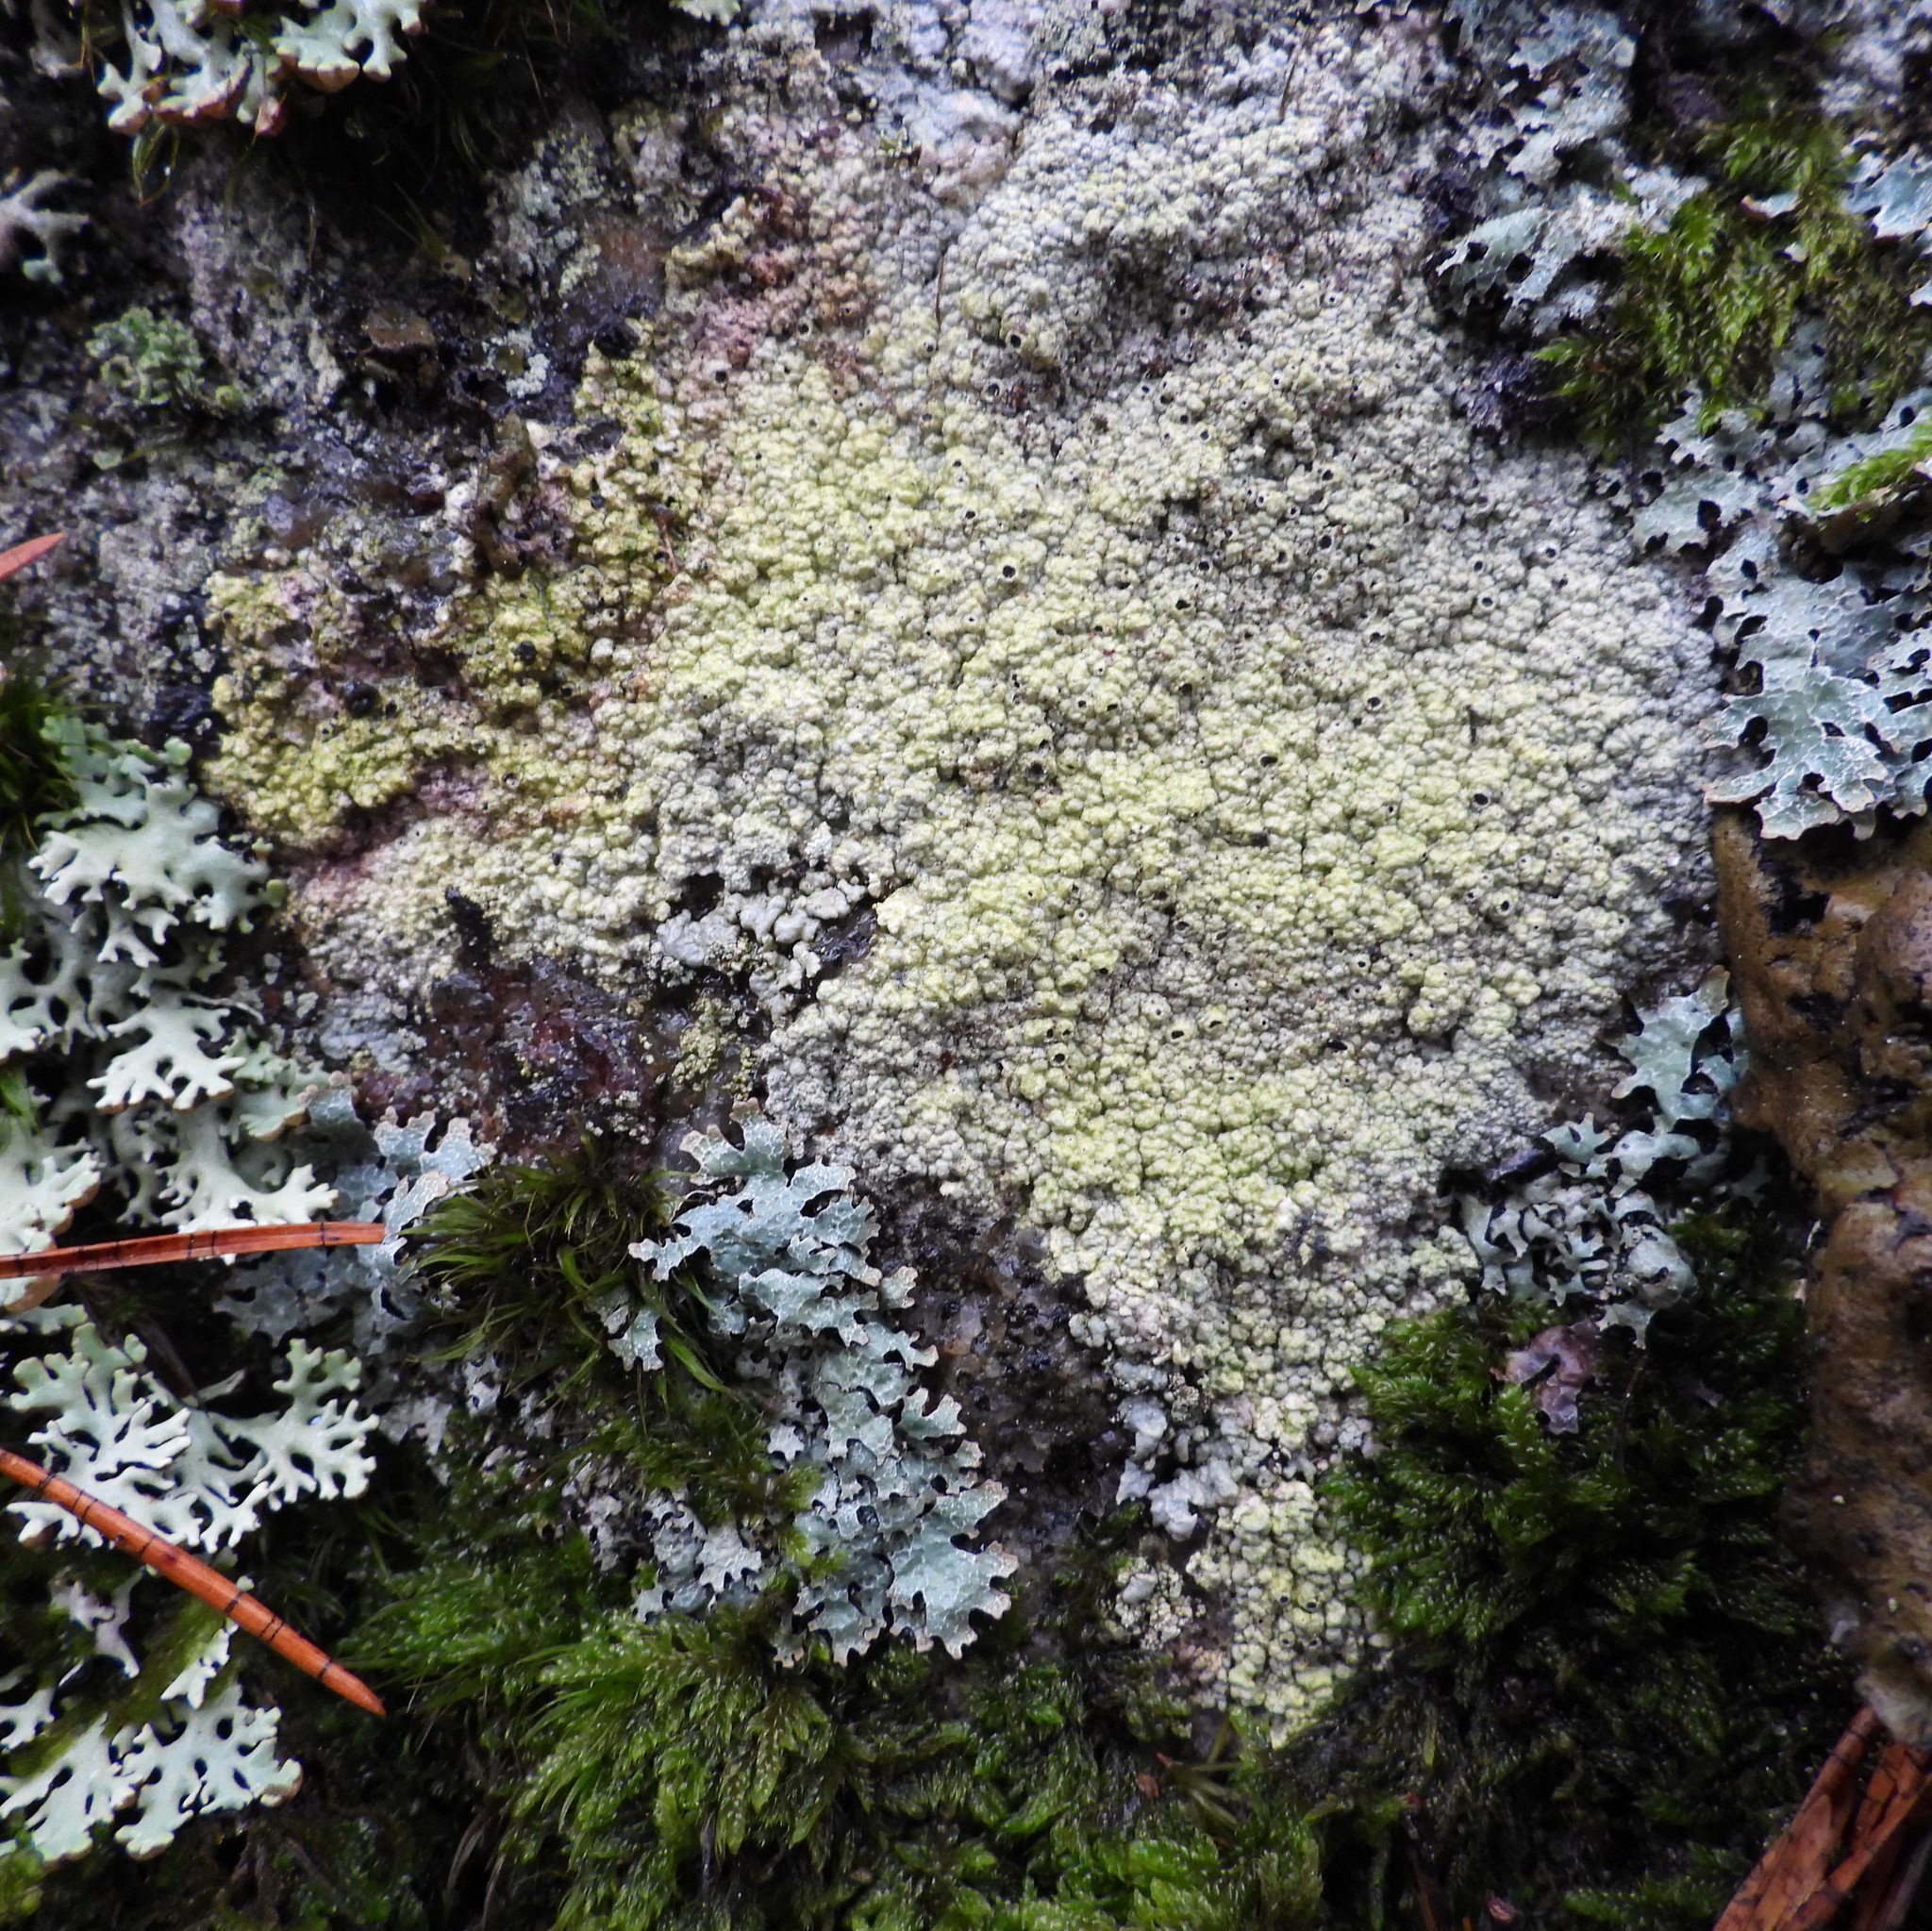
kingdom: Fungi
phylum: Ascomycota
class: Lecanoromycetes
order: Ostropales
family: Graphidaceae
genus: Diploschistes
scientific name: Diploschistes scruposus
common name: Crater lichen
